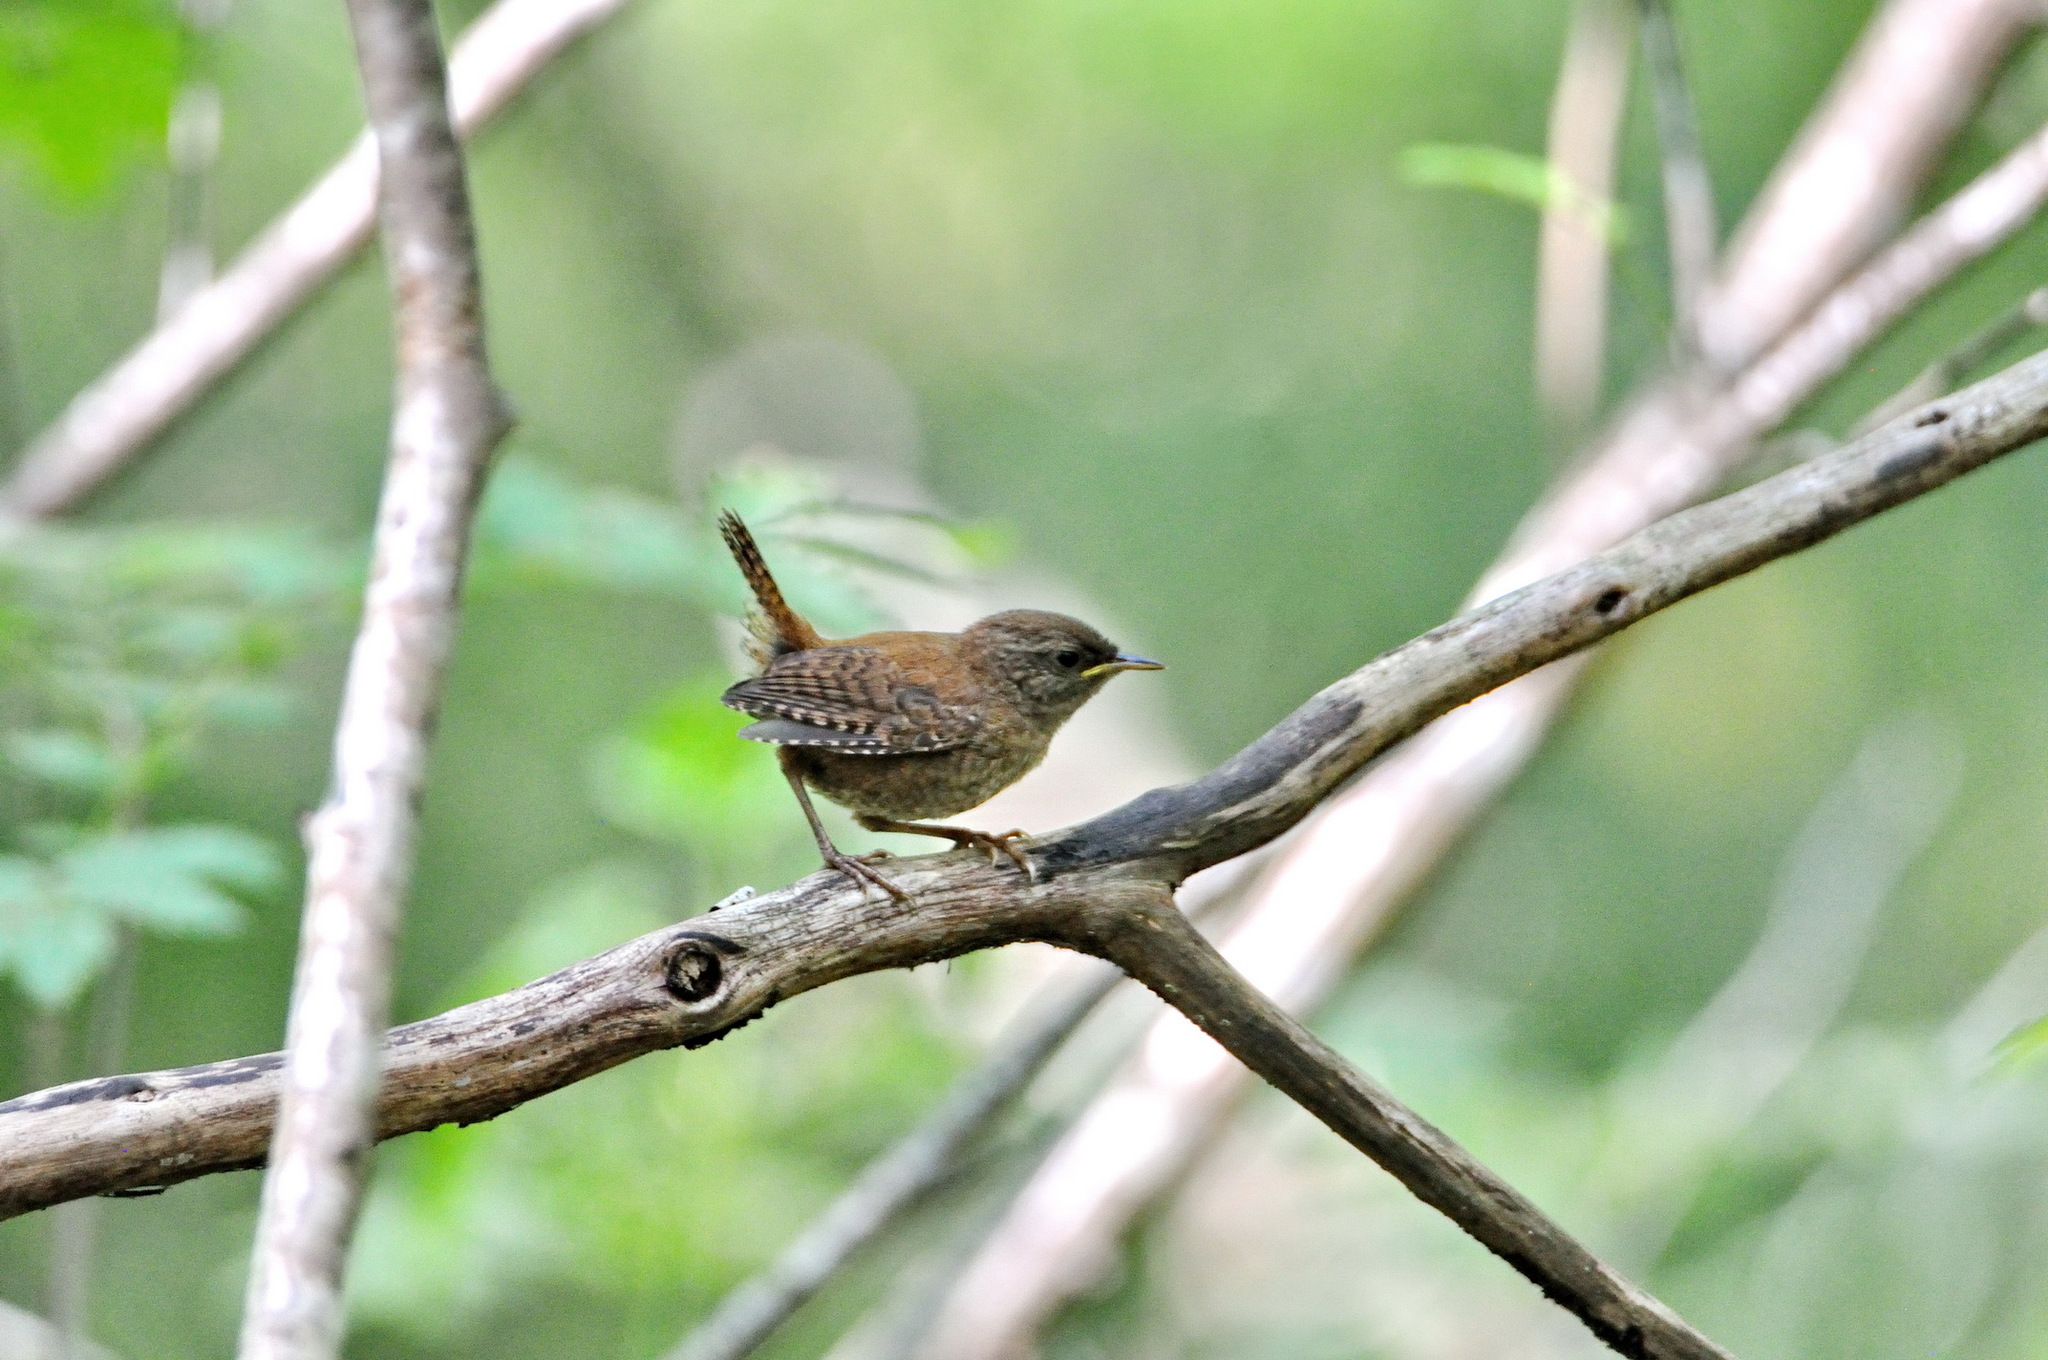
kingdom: Animalia
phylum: Chordata
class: Aves
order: Passeriformes
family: Troglodytidae
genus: Troglodytes
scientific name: Troglodytes troglodytes
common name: Eurasian wren
